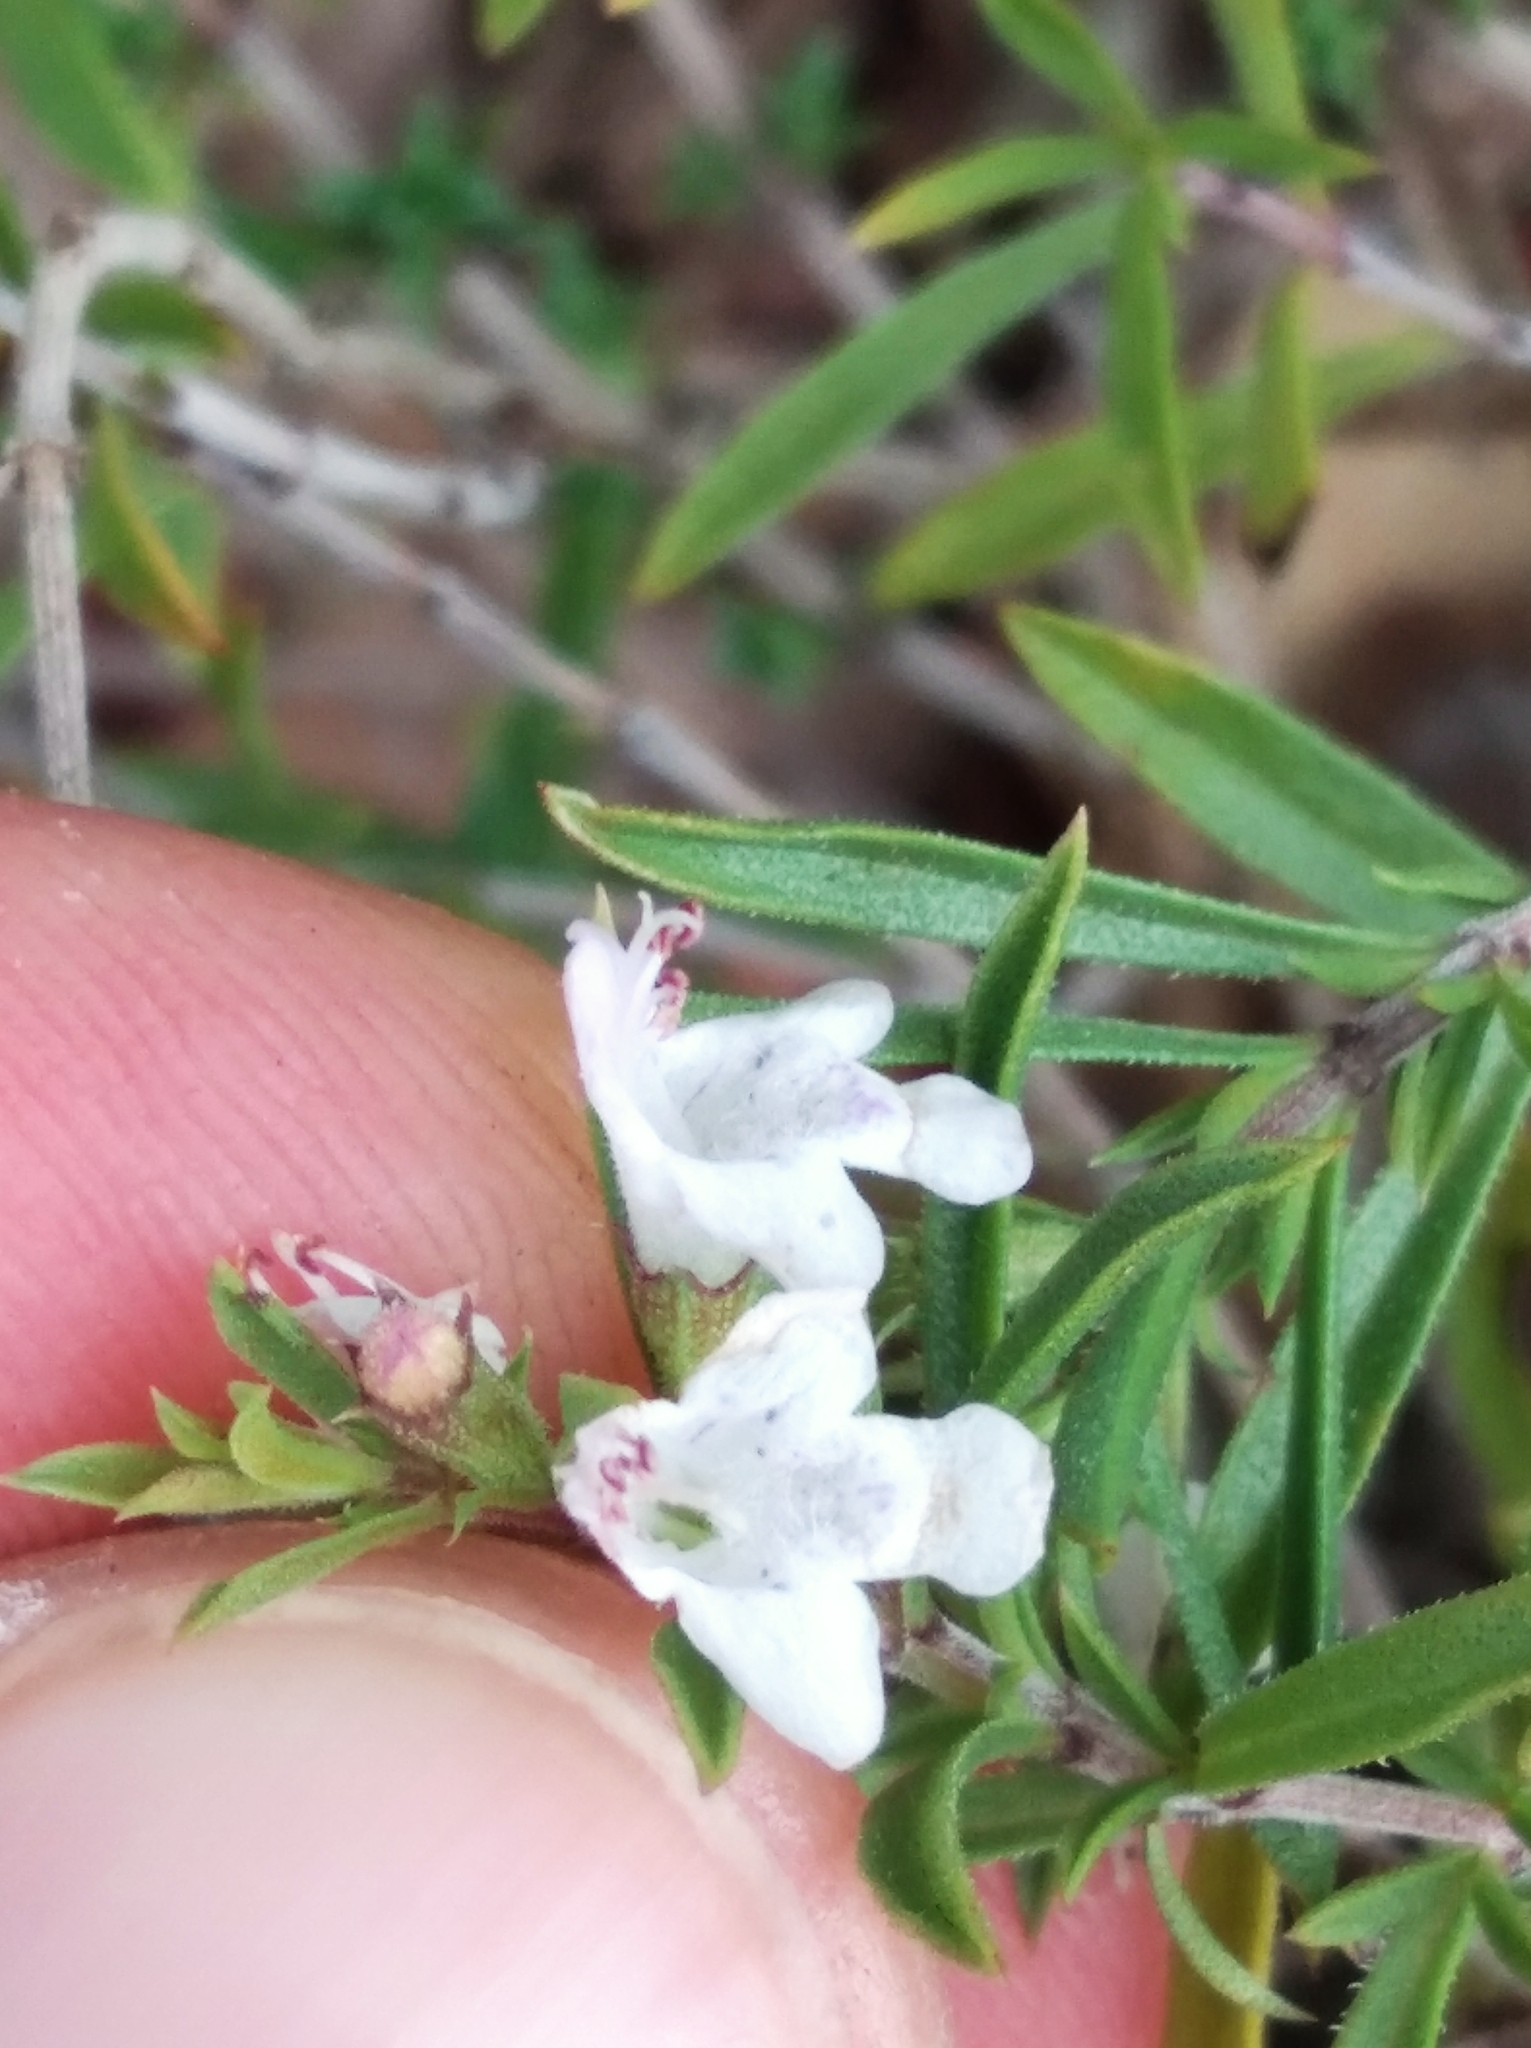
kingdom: Plantae
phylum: Tracheophyta
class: Magnoliopsida
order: Lamiales
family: Lamiaceae
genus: Satureja
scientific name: Satureja montana
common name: Winter savory
